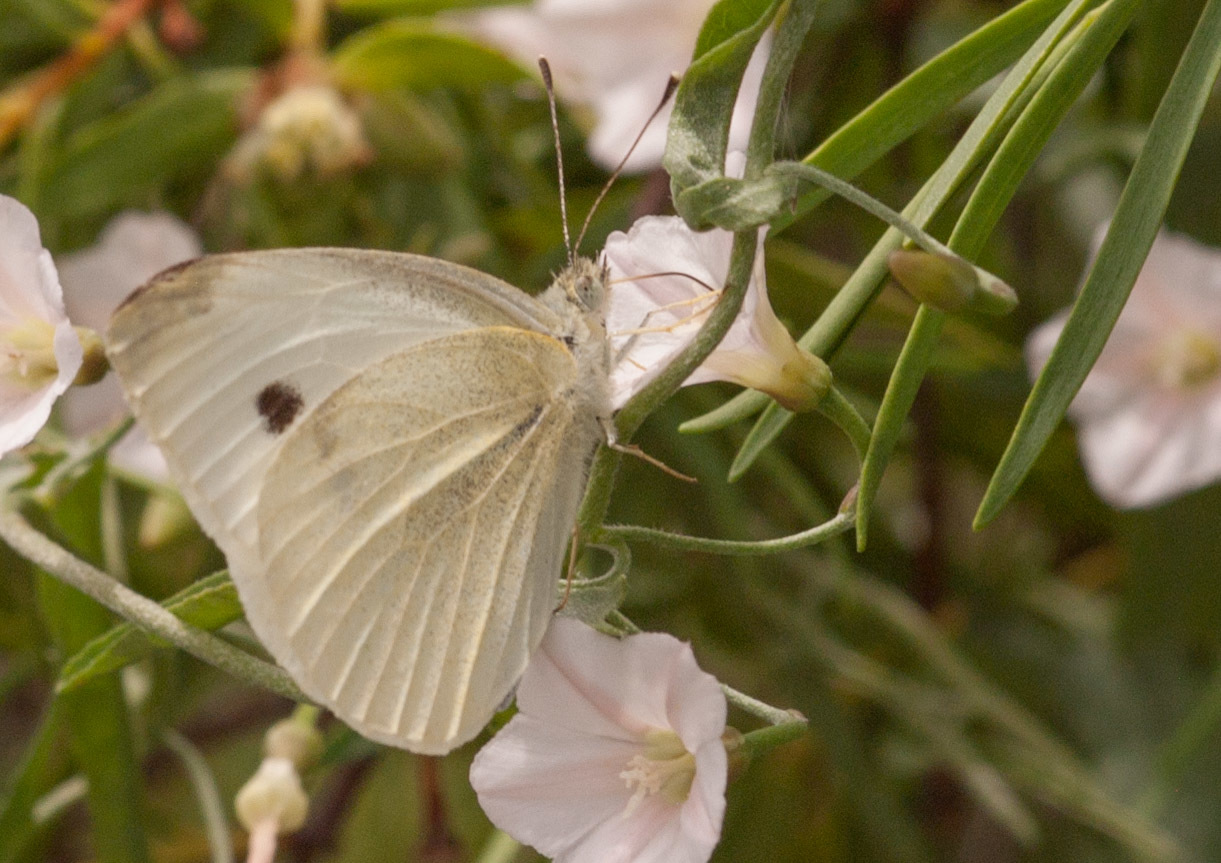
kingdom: Animalia
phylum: Arthropoda
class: Insecta
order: Lepidoptera
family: Pieridae
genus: Pieris
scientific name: Pieris rapae
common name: Small white
